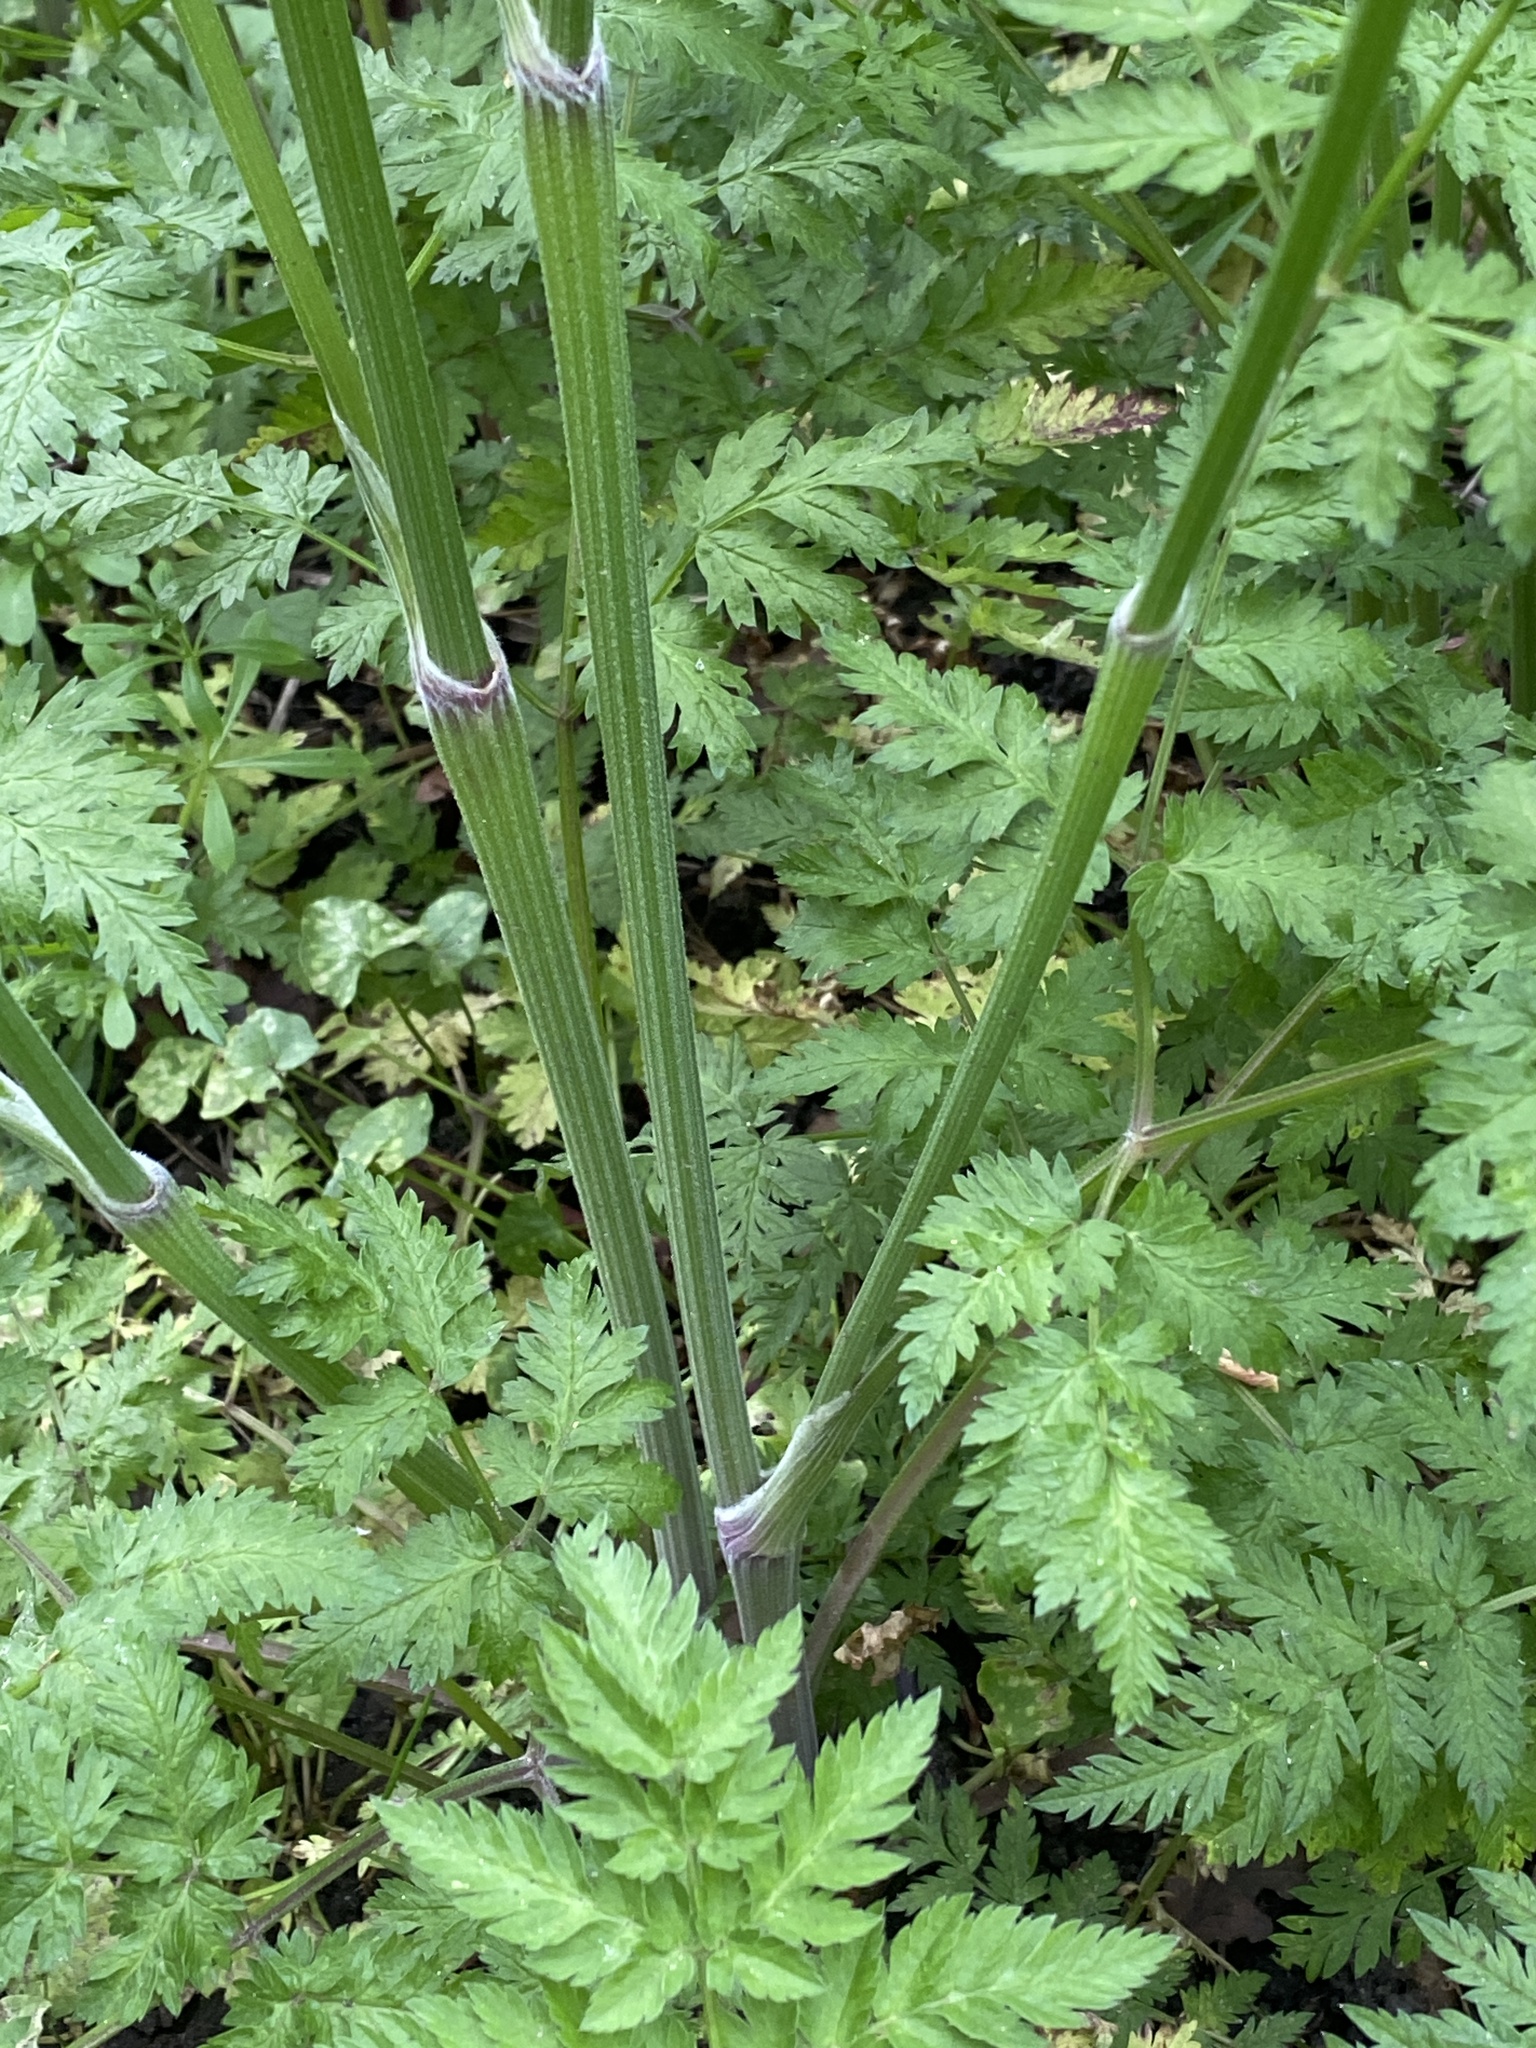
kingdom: Plantae
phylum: Tracheophyta
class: Magnoliopsida
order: Apiales
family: Apiaceae
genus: Anthriscus
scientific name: Anthriscus sylvestris
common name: Cow parsley
